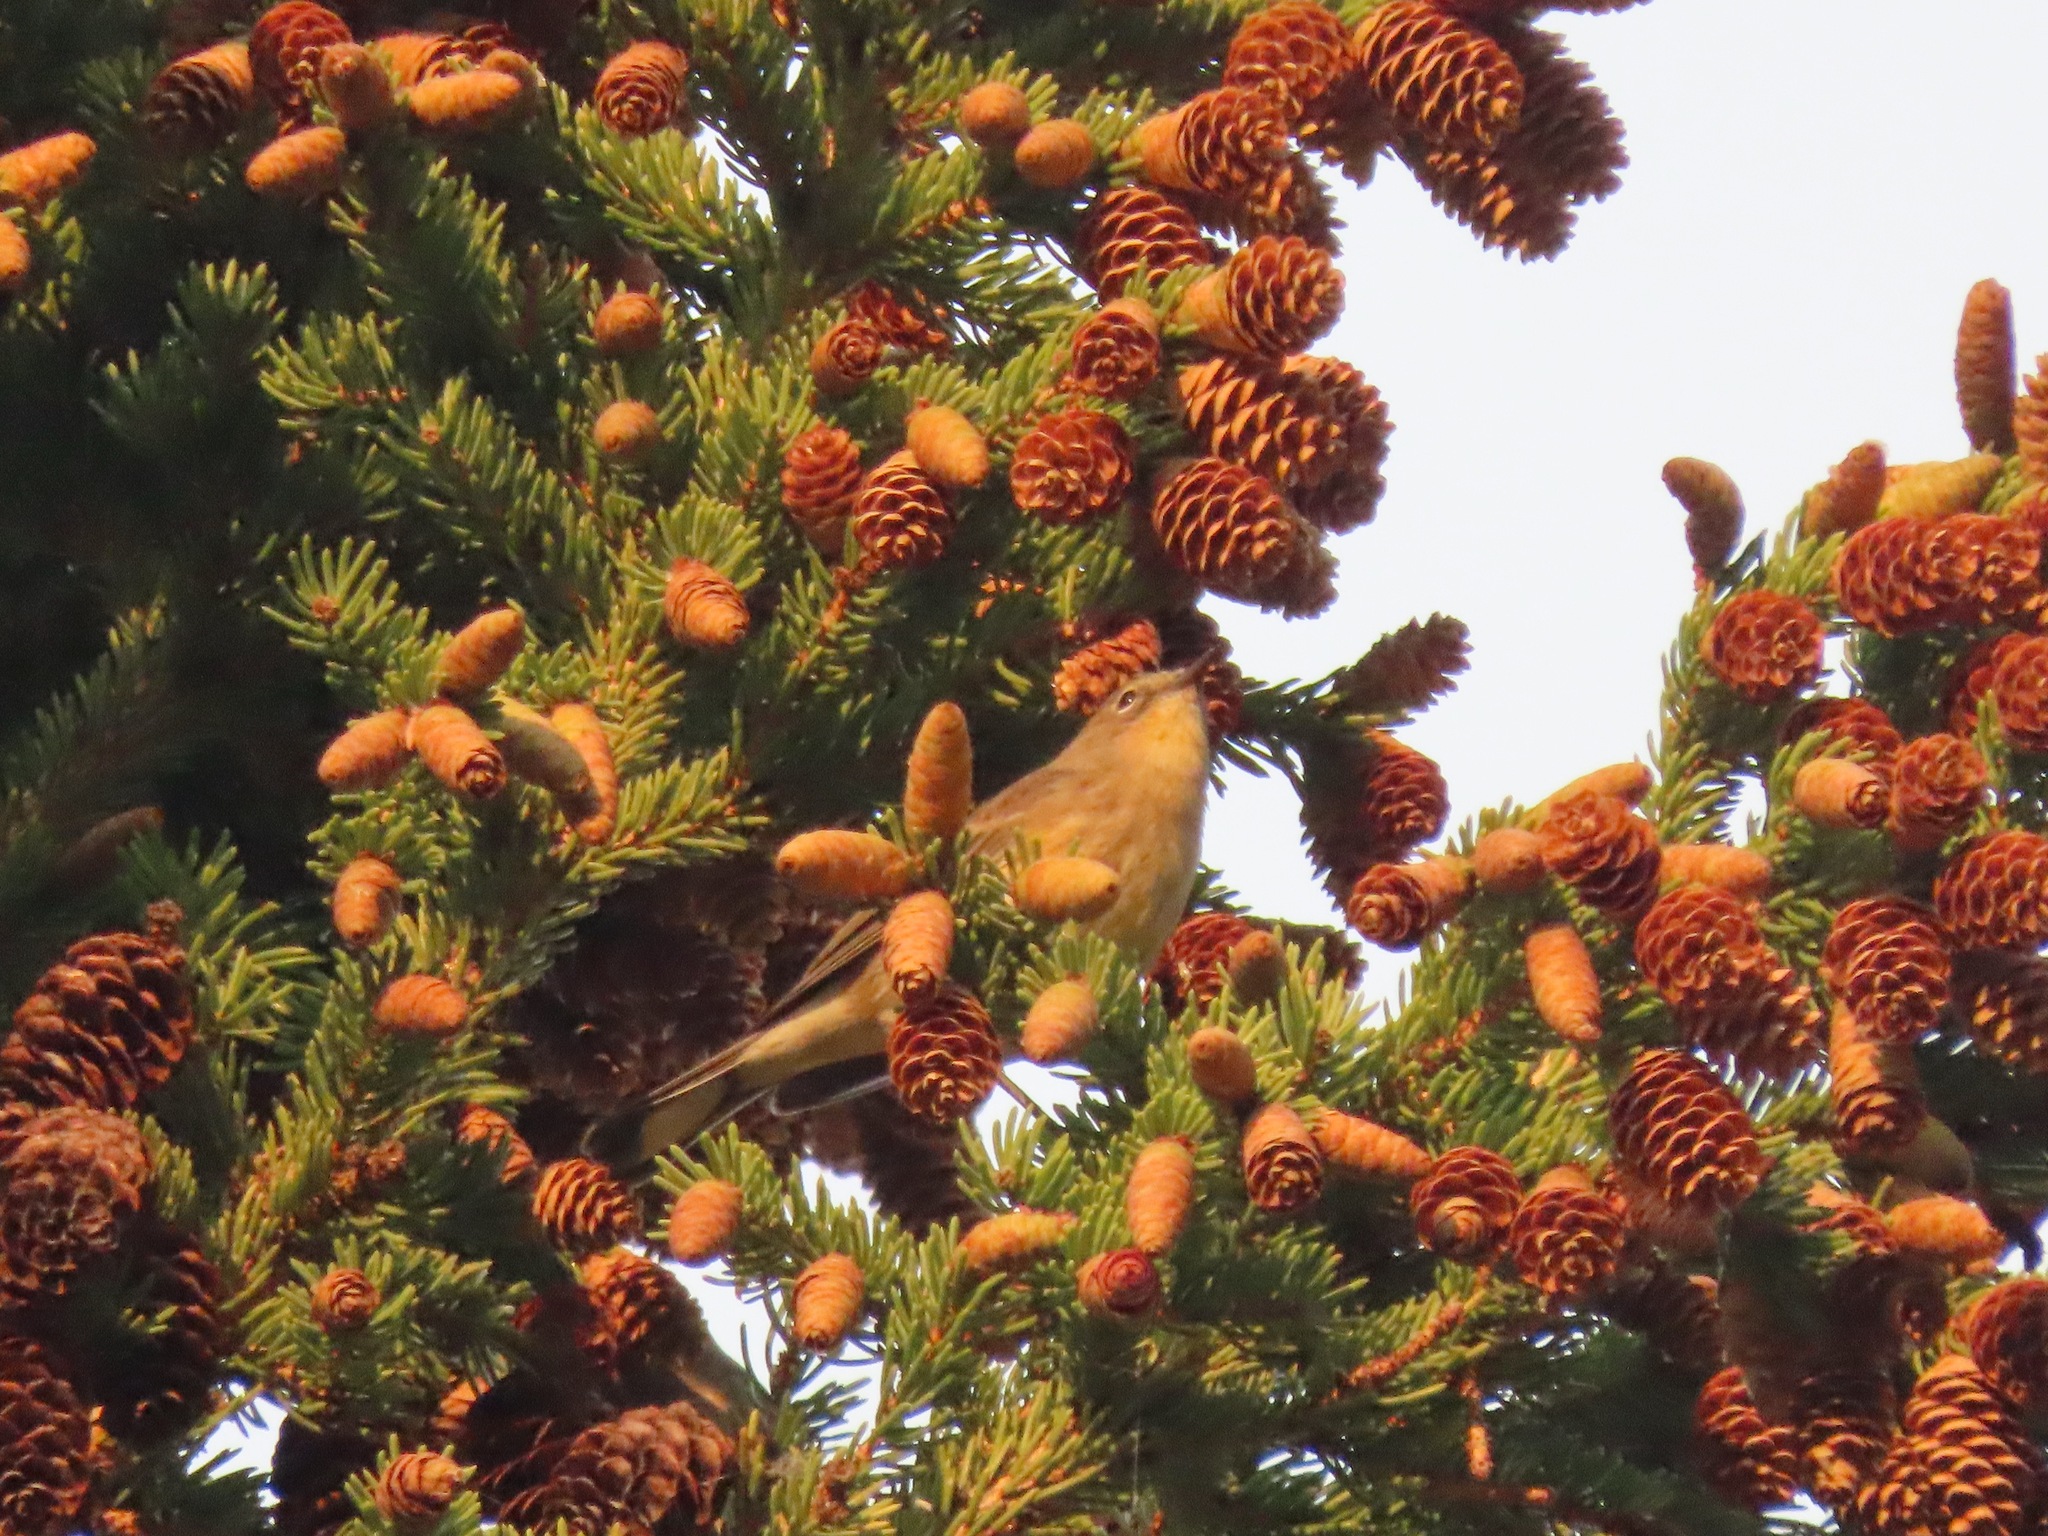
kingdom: Animalia
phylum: Chordata
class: Aves
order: Passeriformes
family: Parulidae
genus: Setophaga
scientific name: Setophaga coronata
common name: Myrtle warbler
